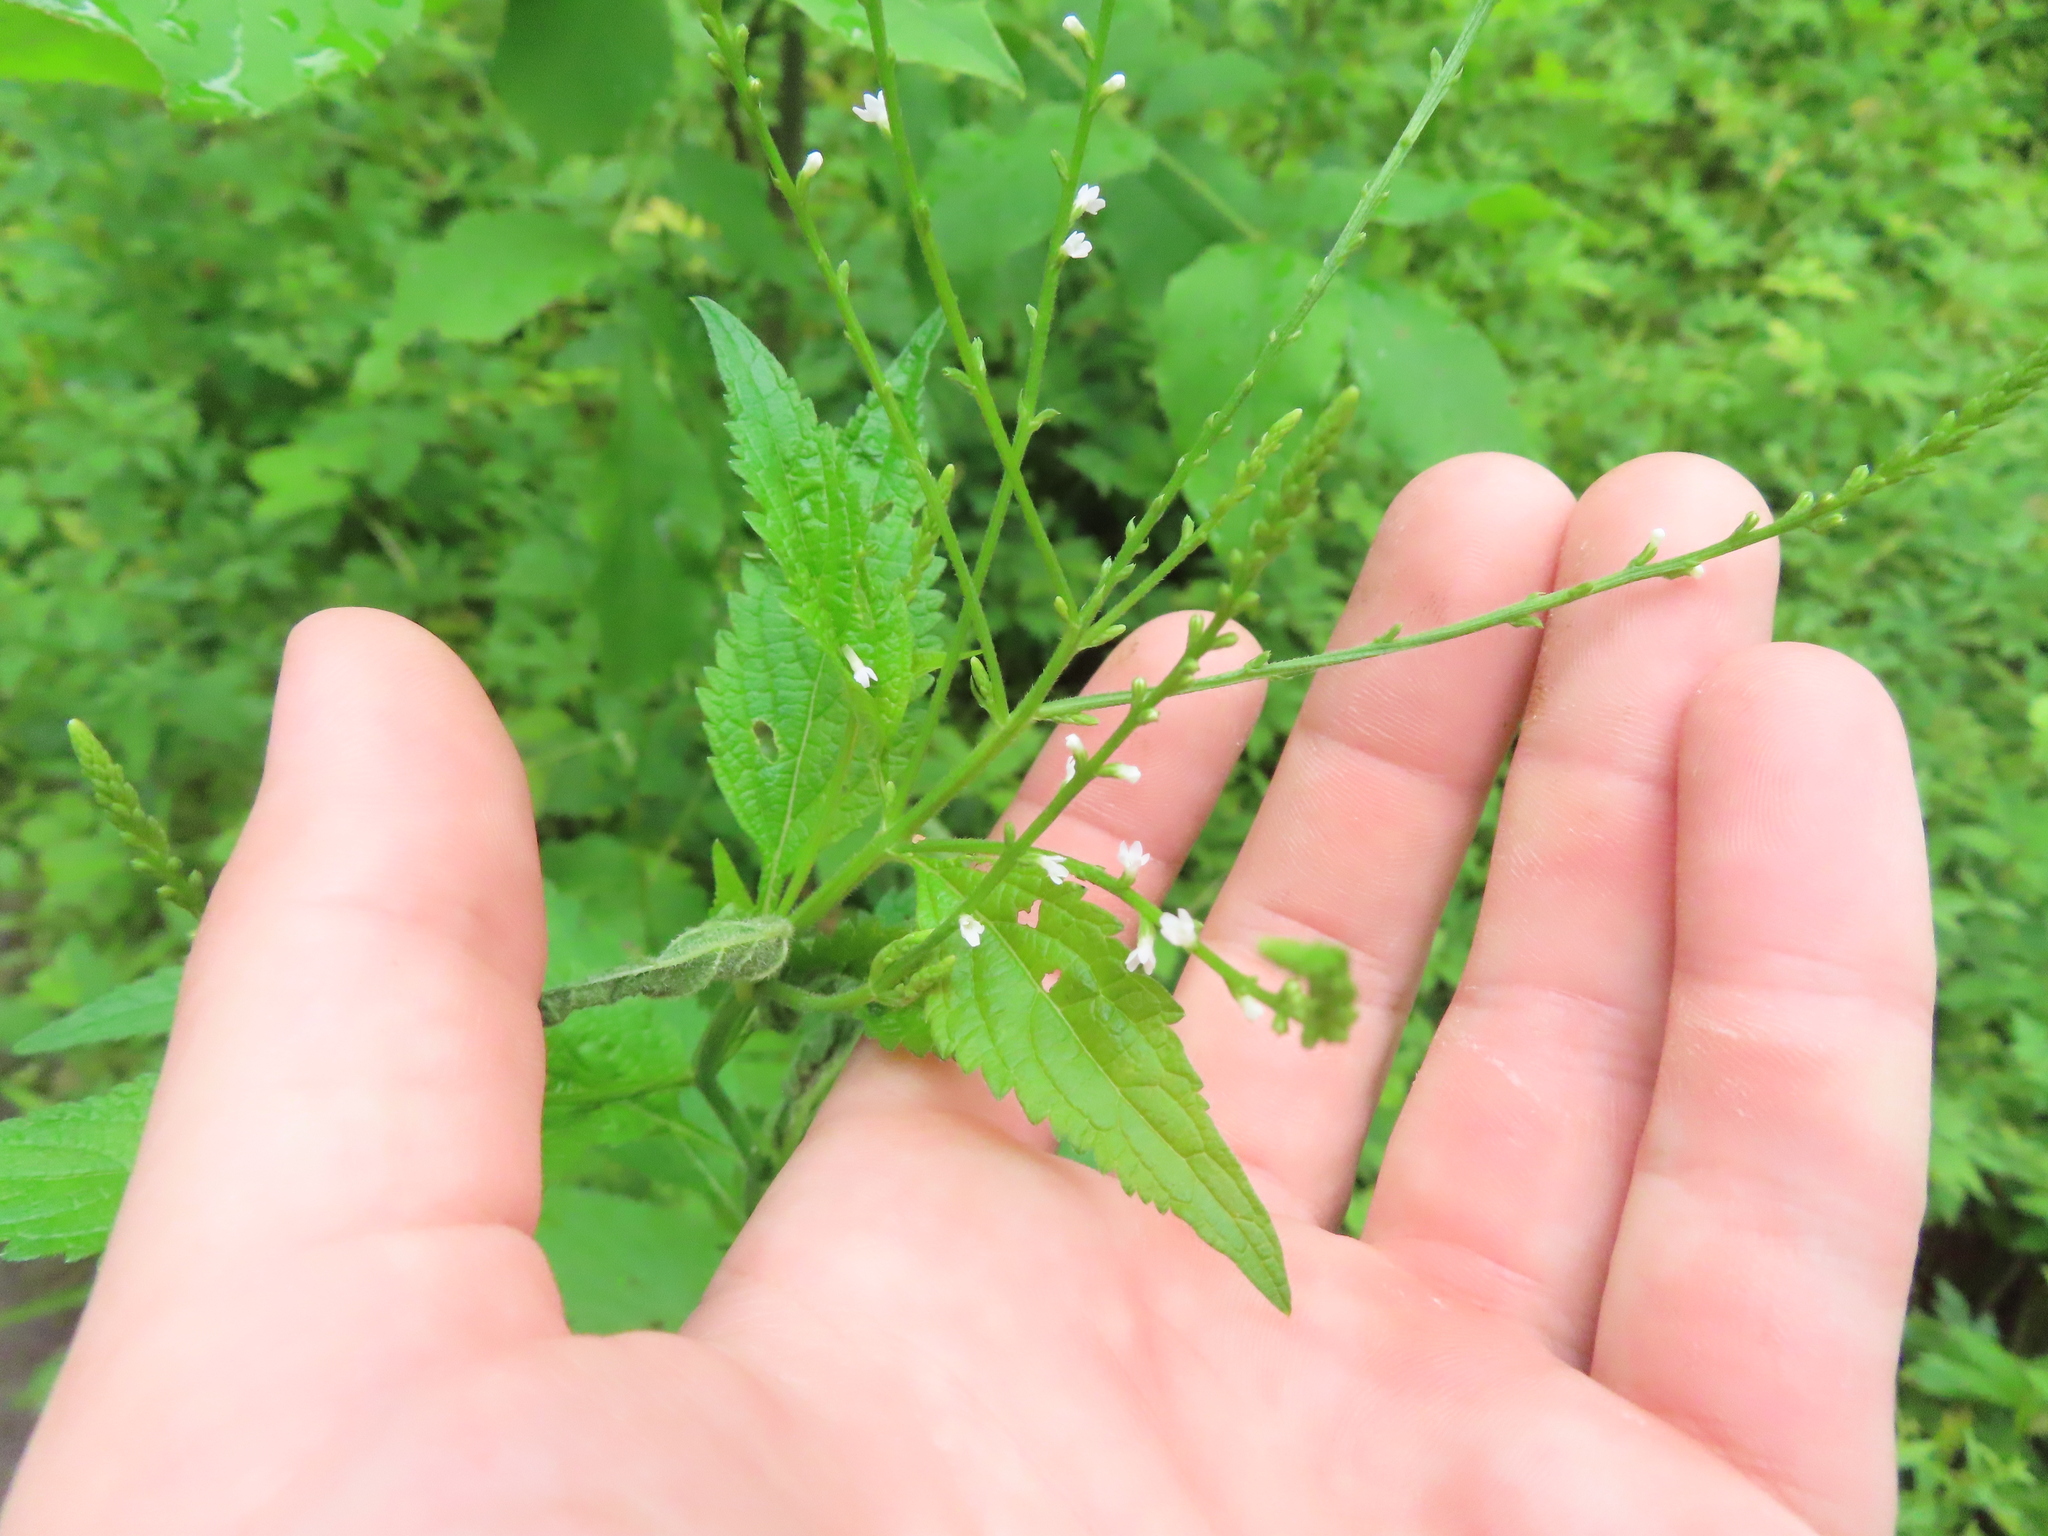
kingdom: Plantae
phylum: Tracheophyta
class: Magnoliopsida
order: Lamiales
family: Verbenaceae
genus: Verbena
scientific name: Verbena urticifolia
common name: Nettle-leaved vervain
